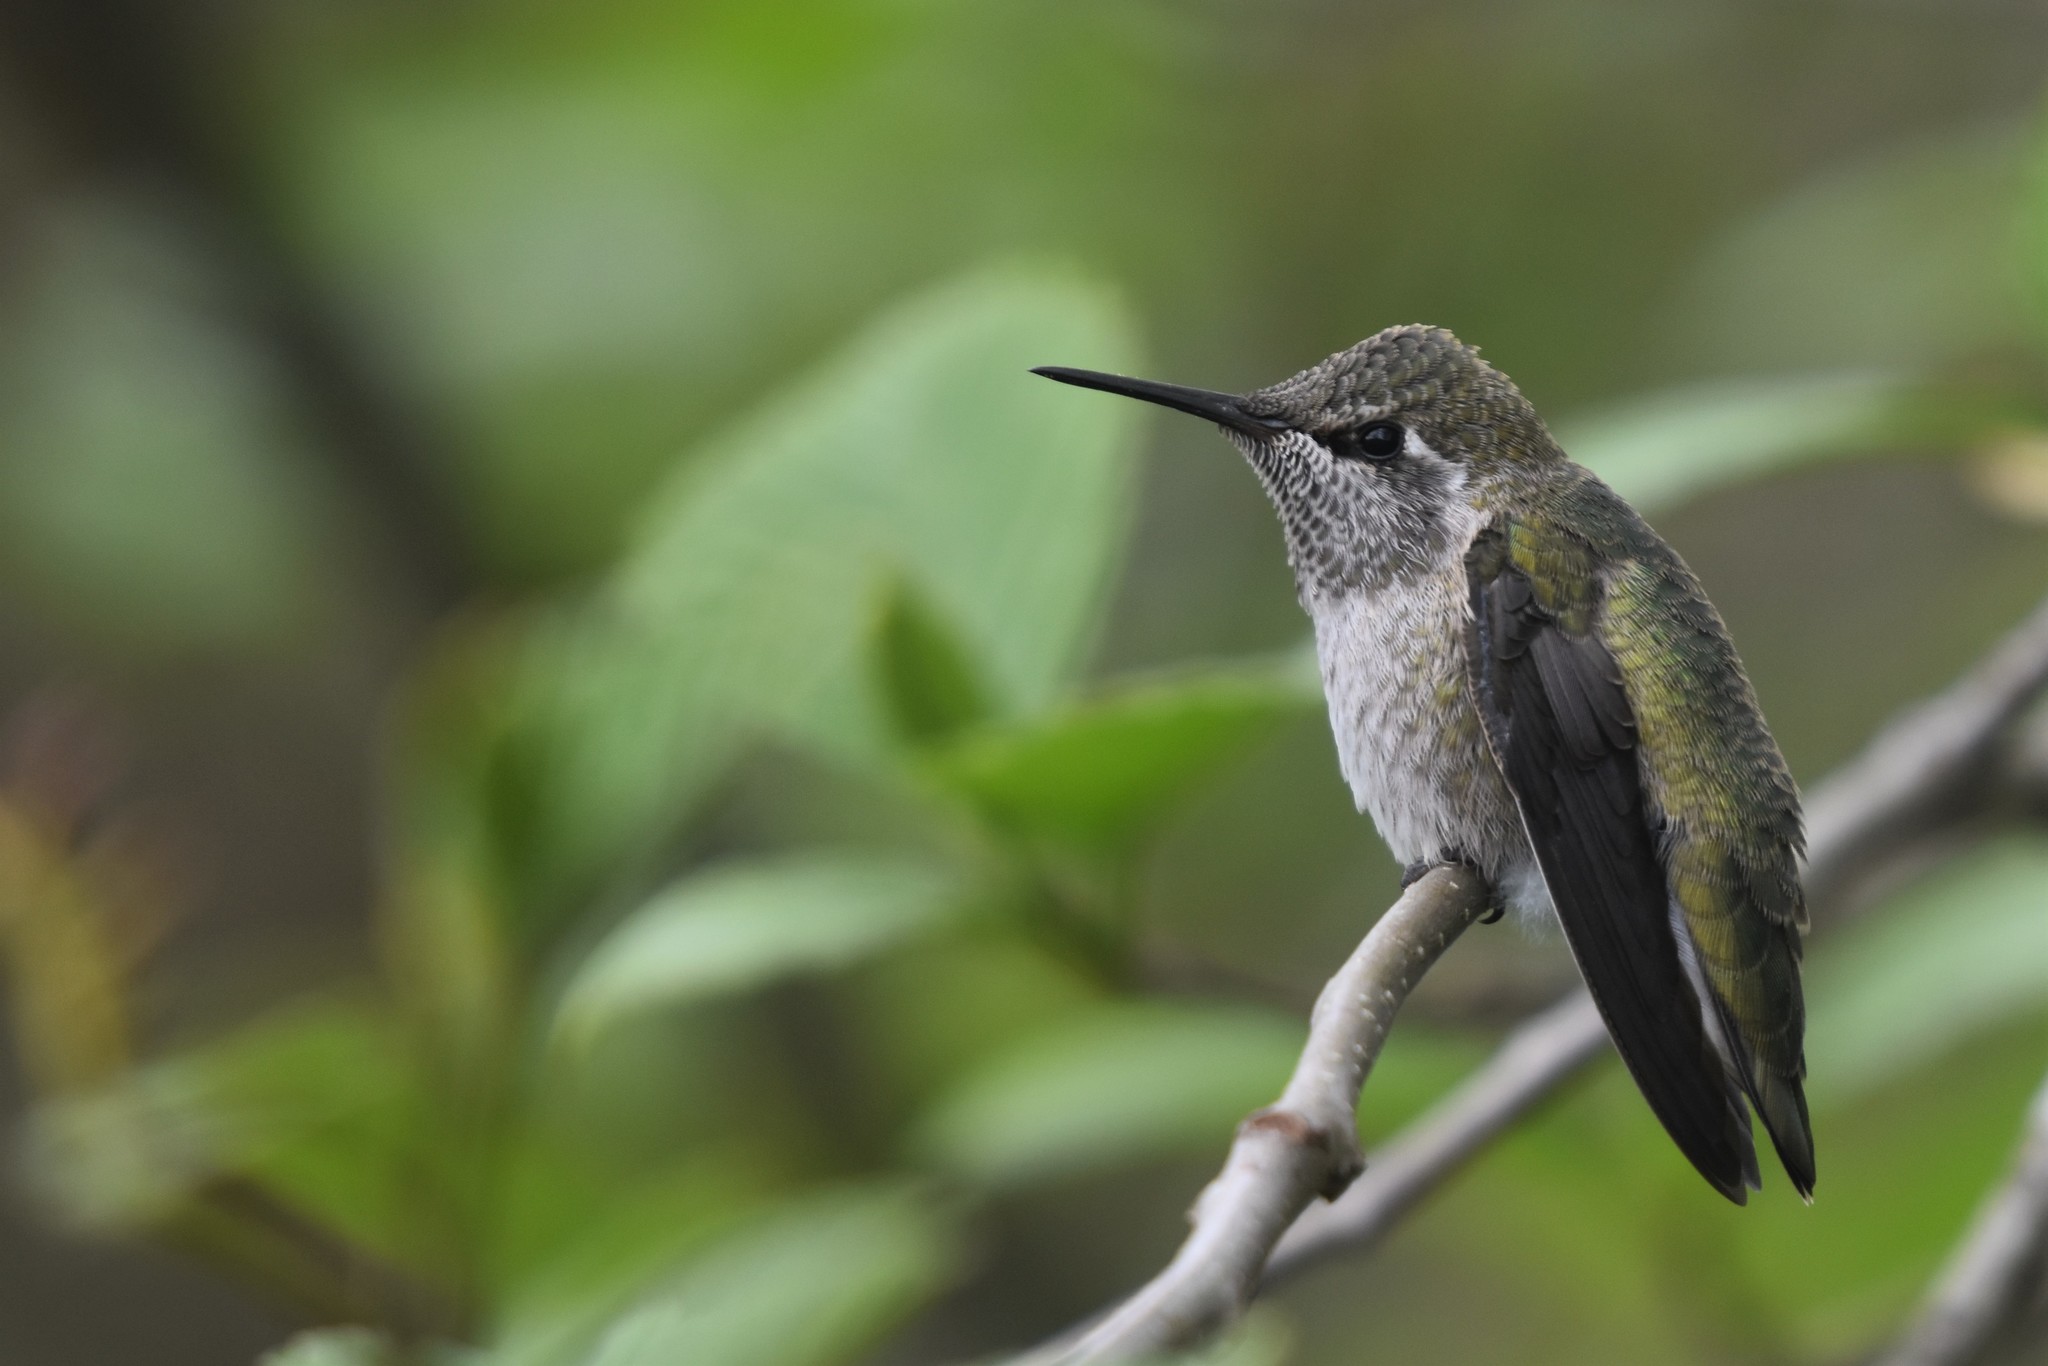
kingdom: Animalia
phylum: Chordata
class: Aves
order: Apodiformes
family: Trochilidae
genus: Calypte
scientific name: Calypte anna
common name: Anna's hummingbird
